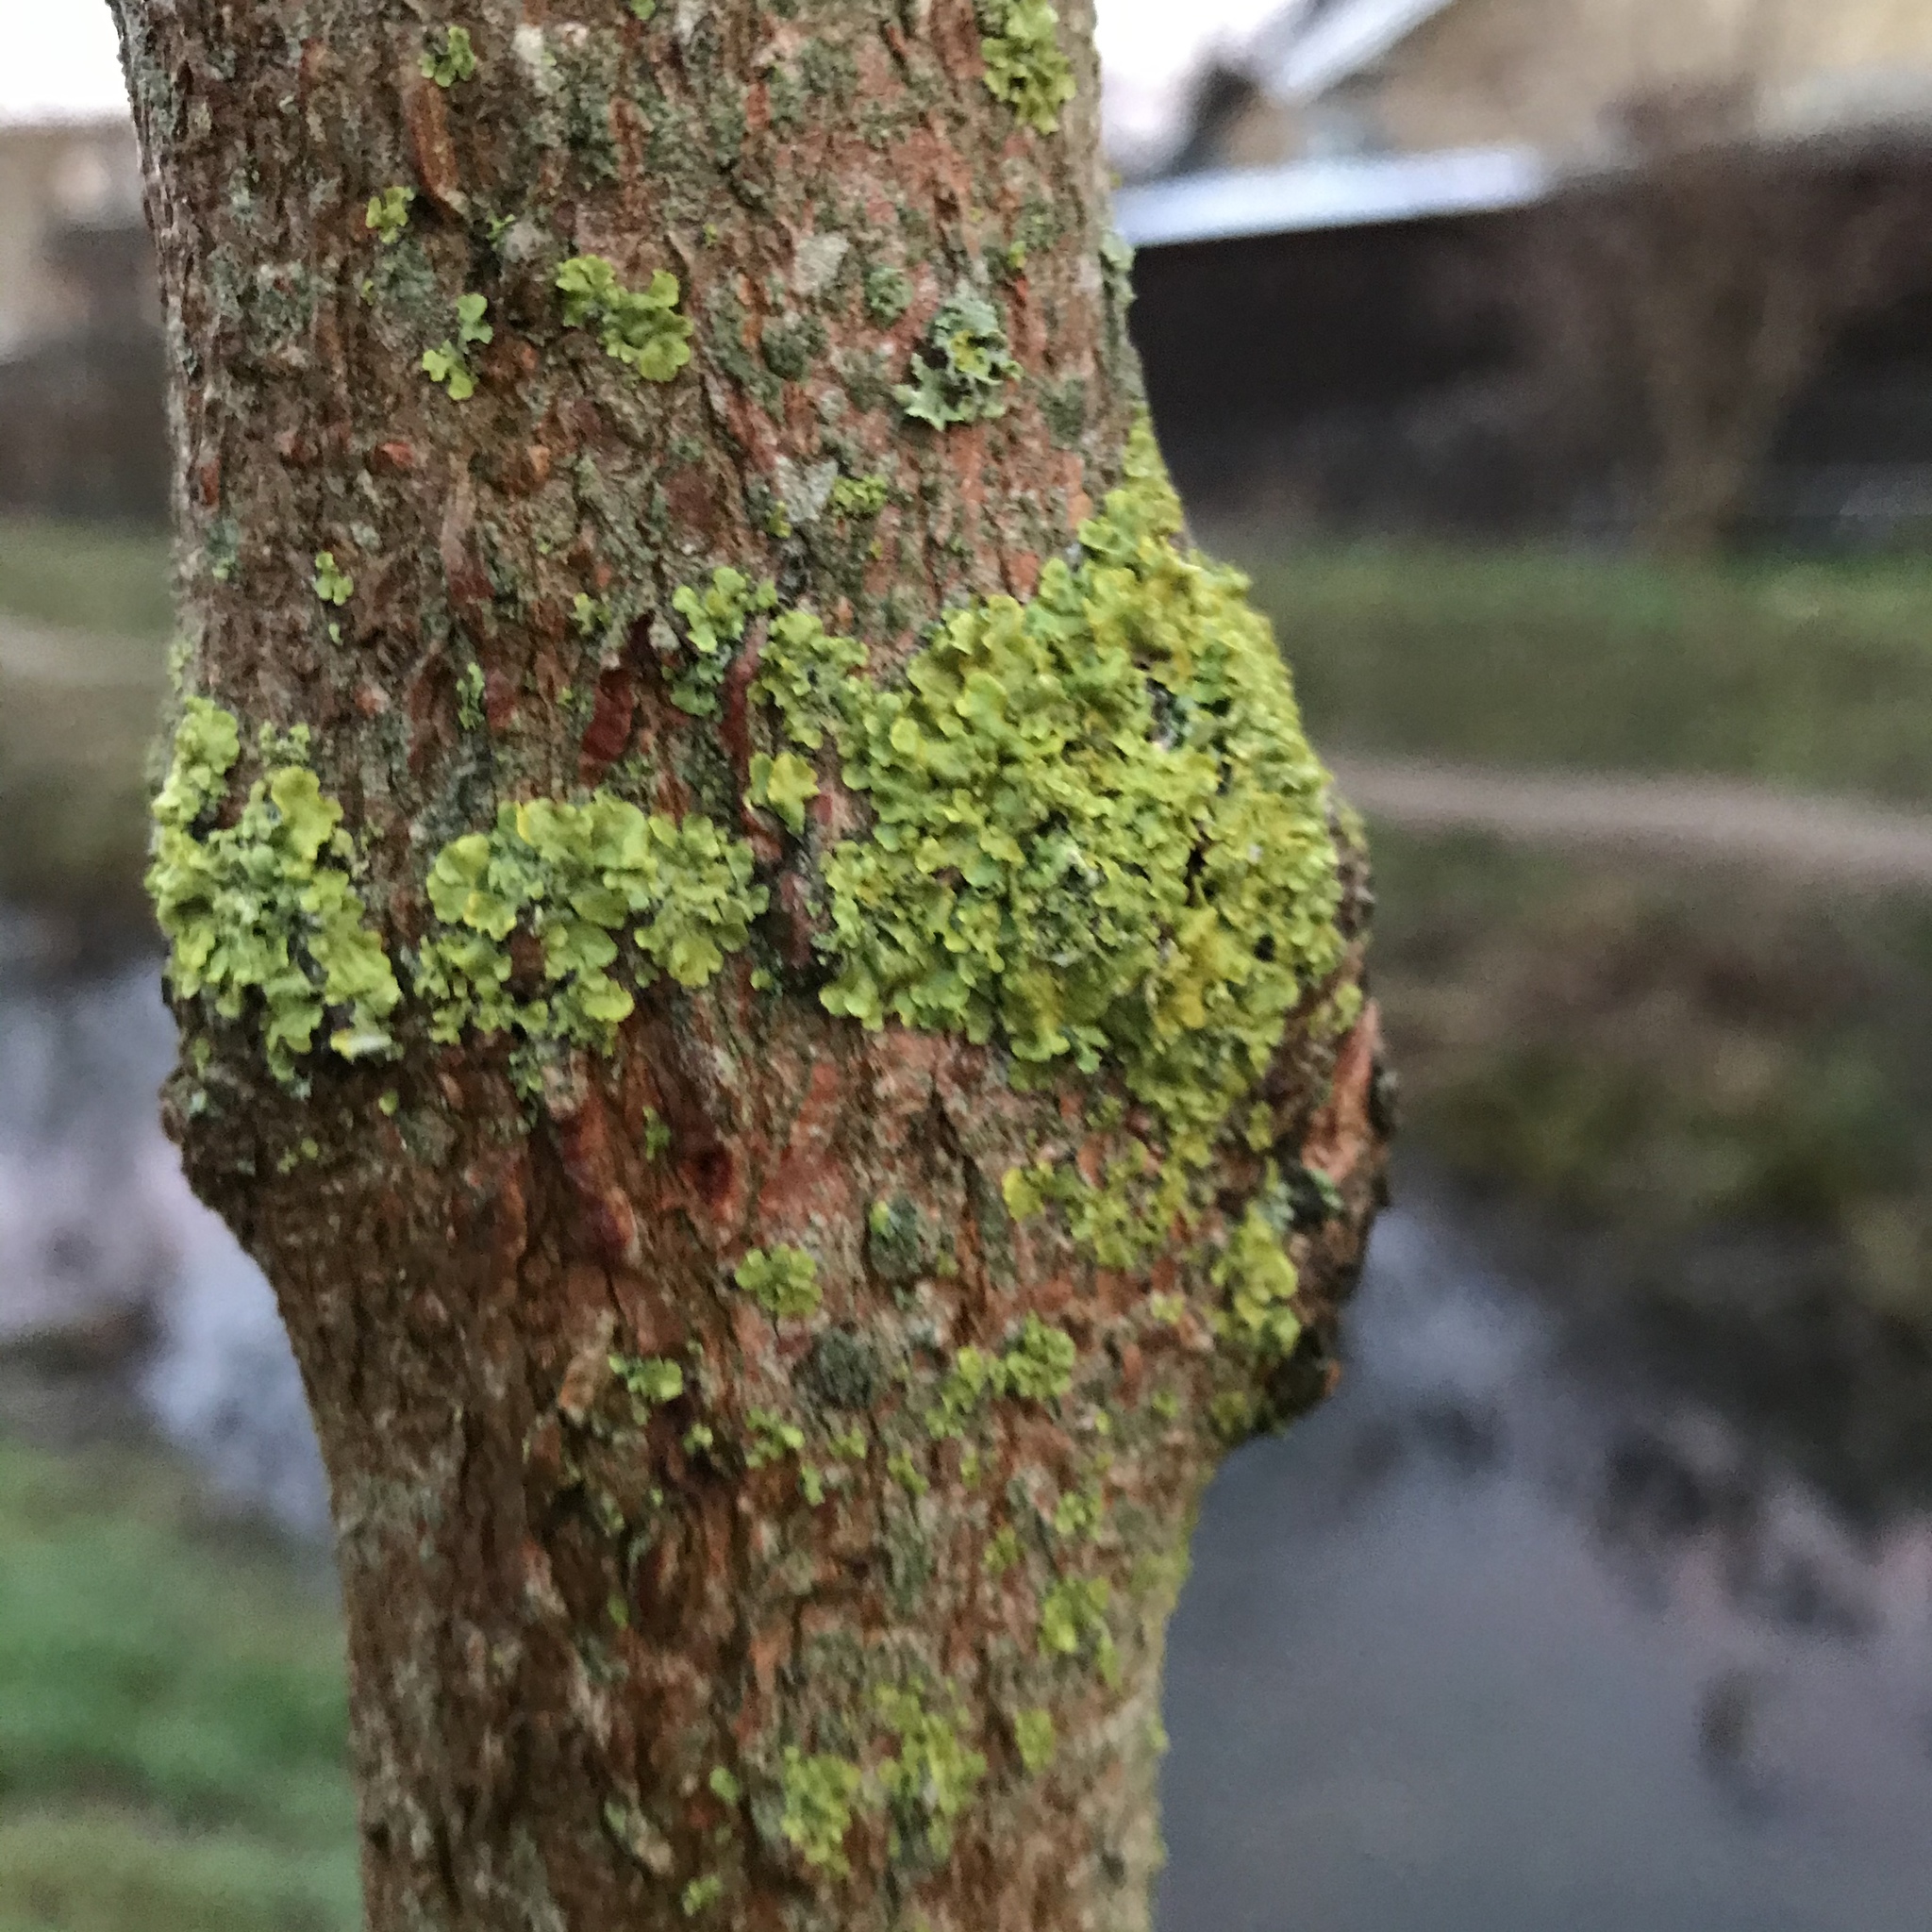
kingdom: Fungi
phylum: Ascomycota
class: Lecanoromycetes
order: Teloschistales
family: Teloschistaceae
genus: Xanthoria
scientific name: Xanthoria parietina
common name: Common orange lichen
